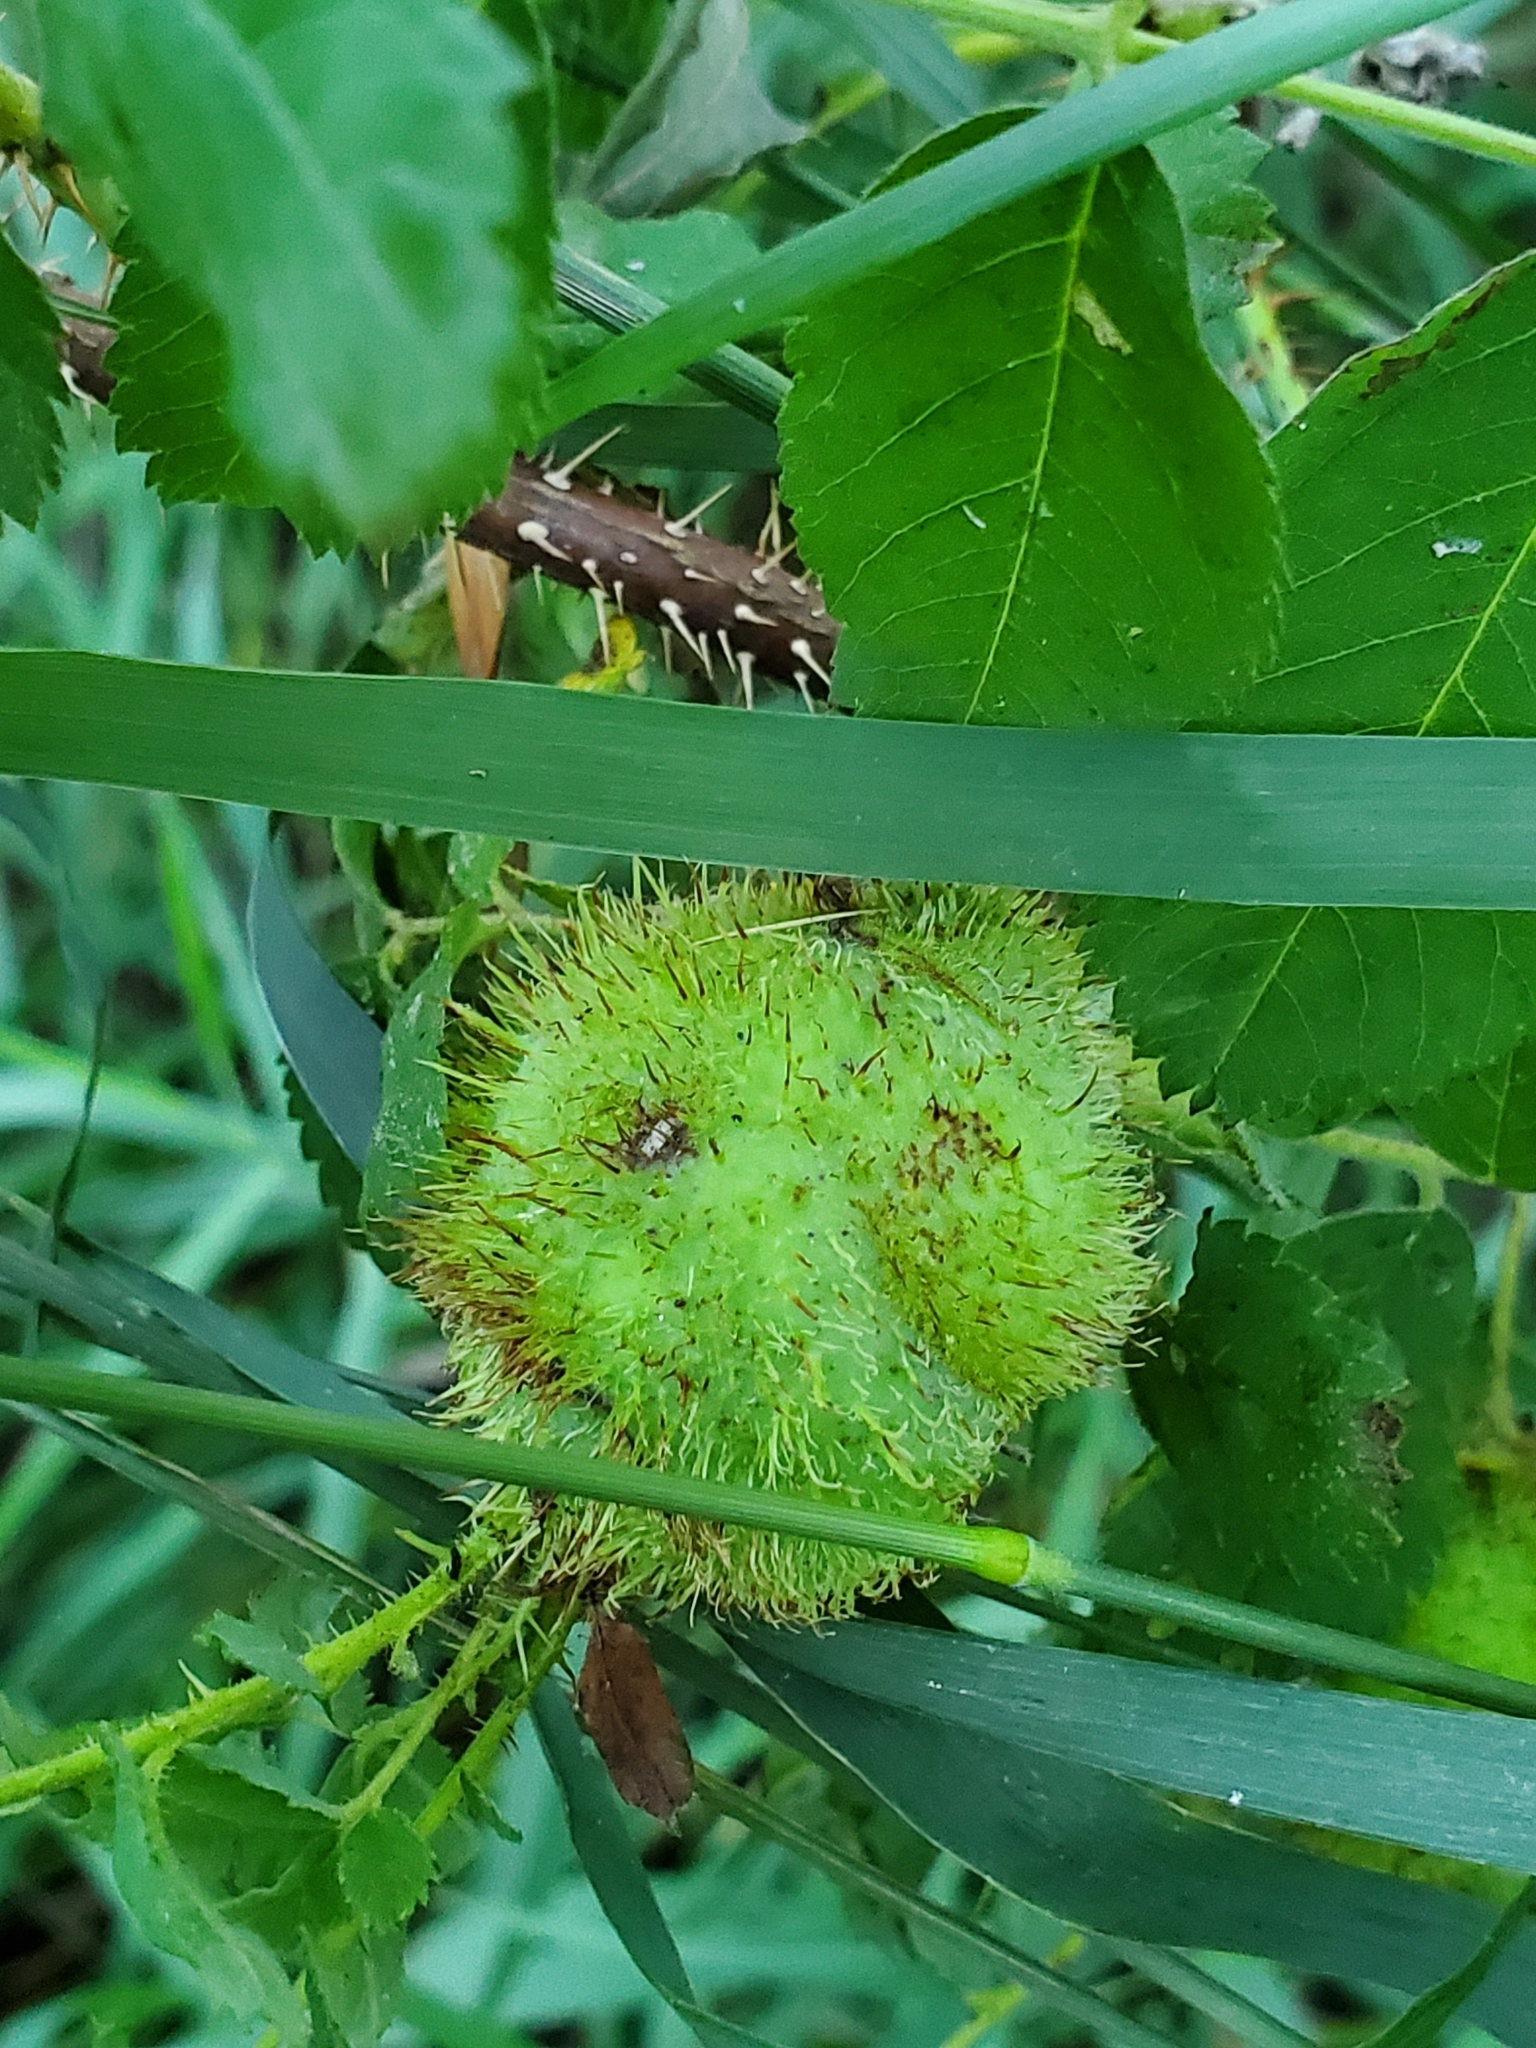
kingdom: Animalia
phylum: Arthropoda
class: Insecta
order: Hymenoptera
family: Cynipidae
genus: Diplolepis
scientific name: Diplolepis spinosa
